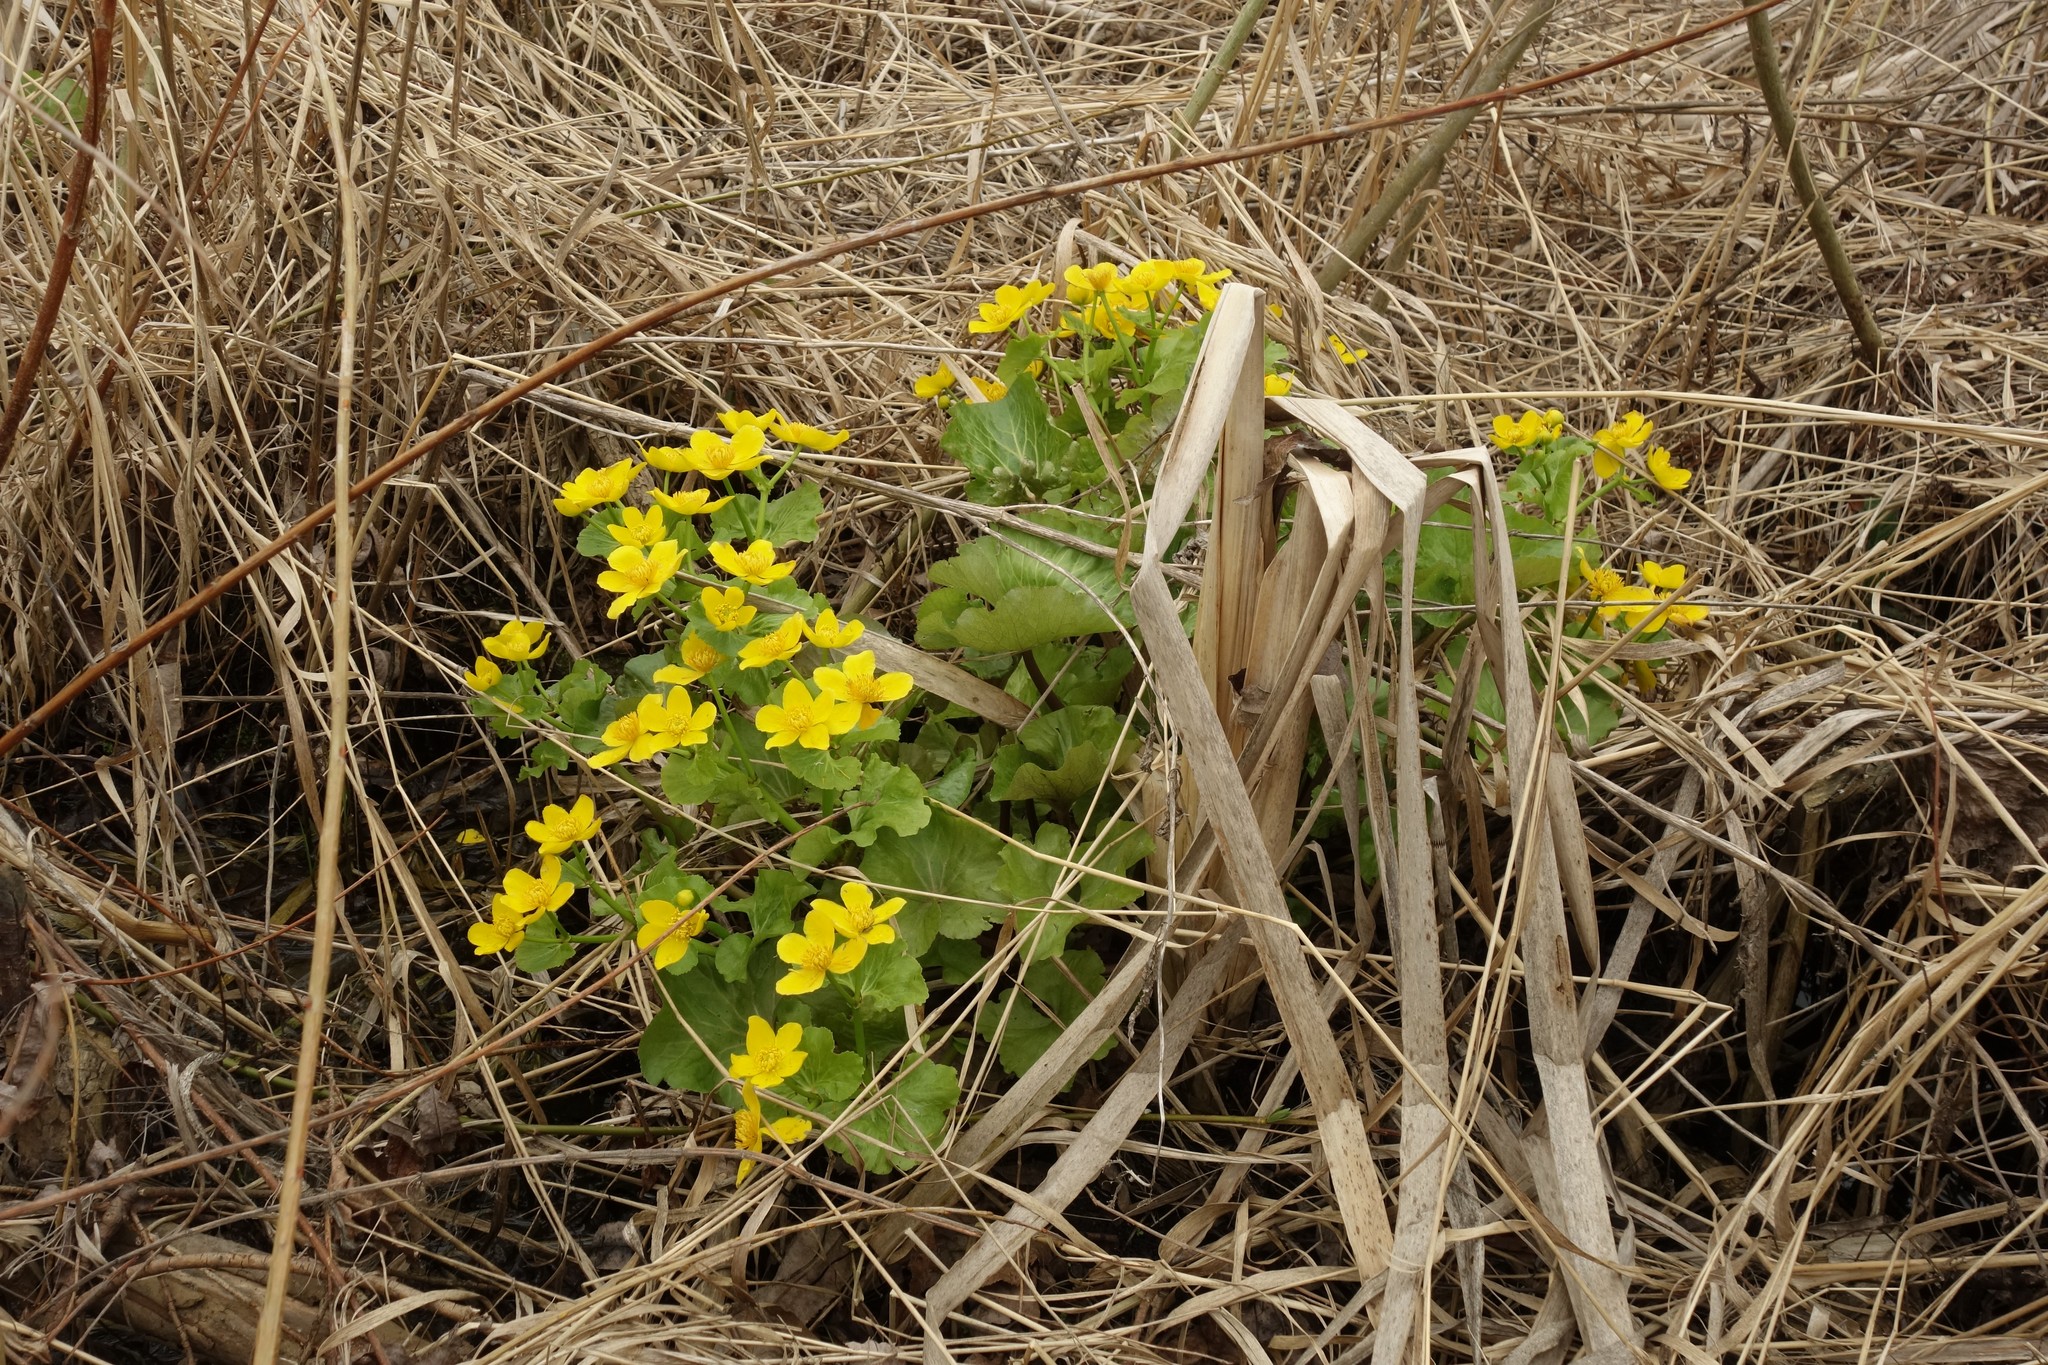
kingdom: Plantae
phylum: Tracheophyta
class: Magnoliopsida
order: Ranunculales
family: Ranunculaceae
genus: Caltha
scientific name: Caltha palustris
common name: Marsh marigold
